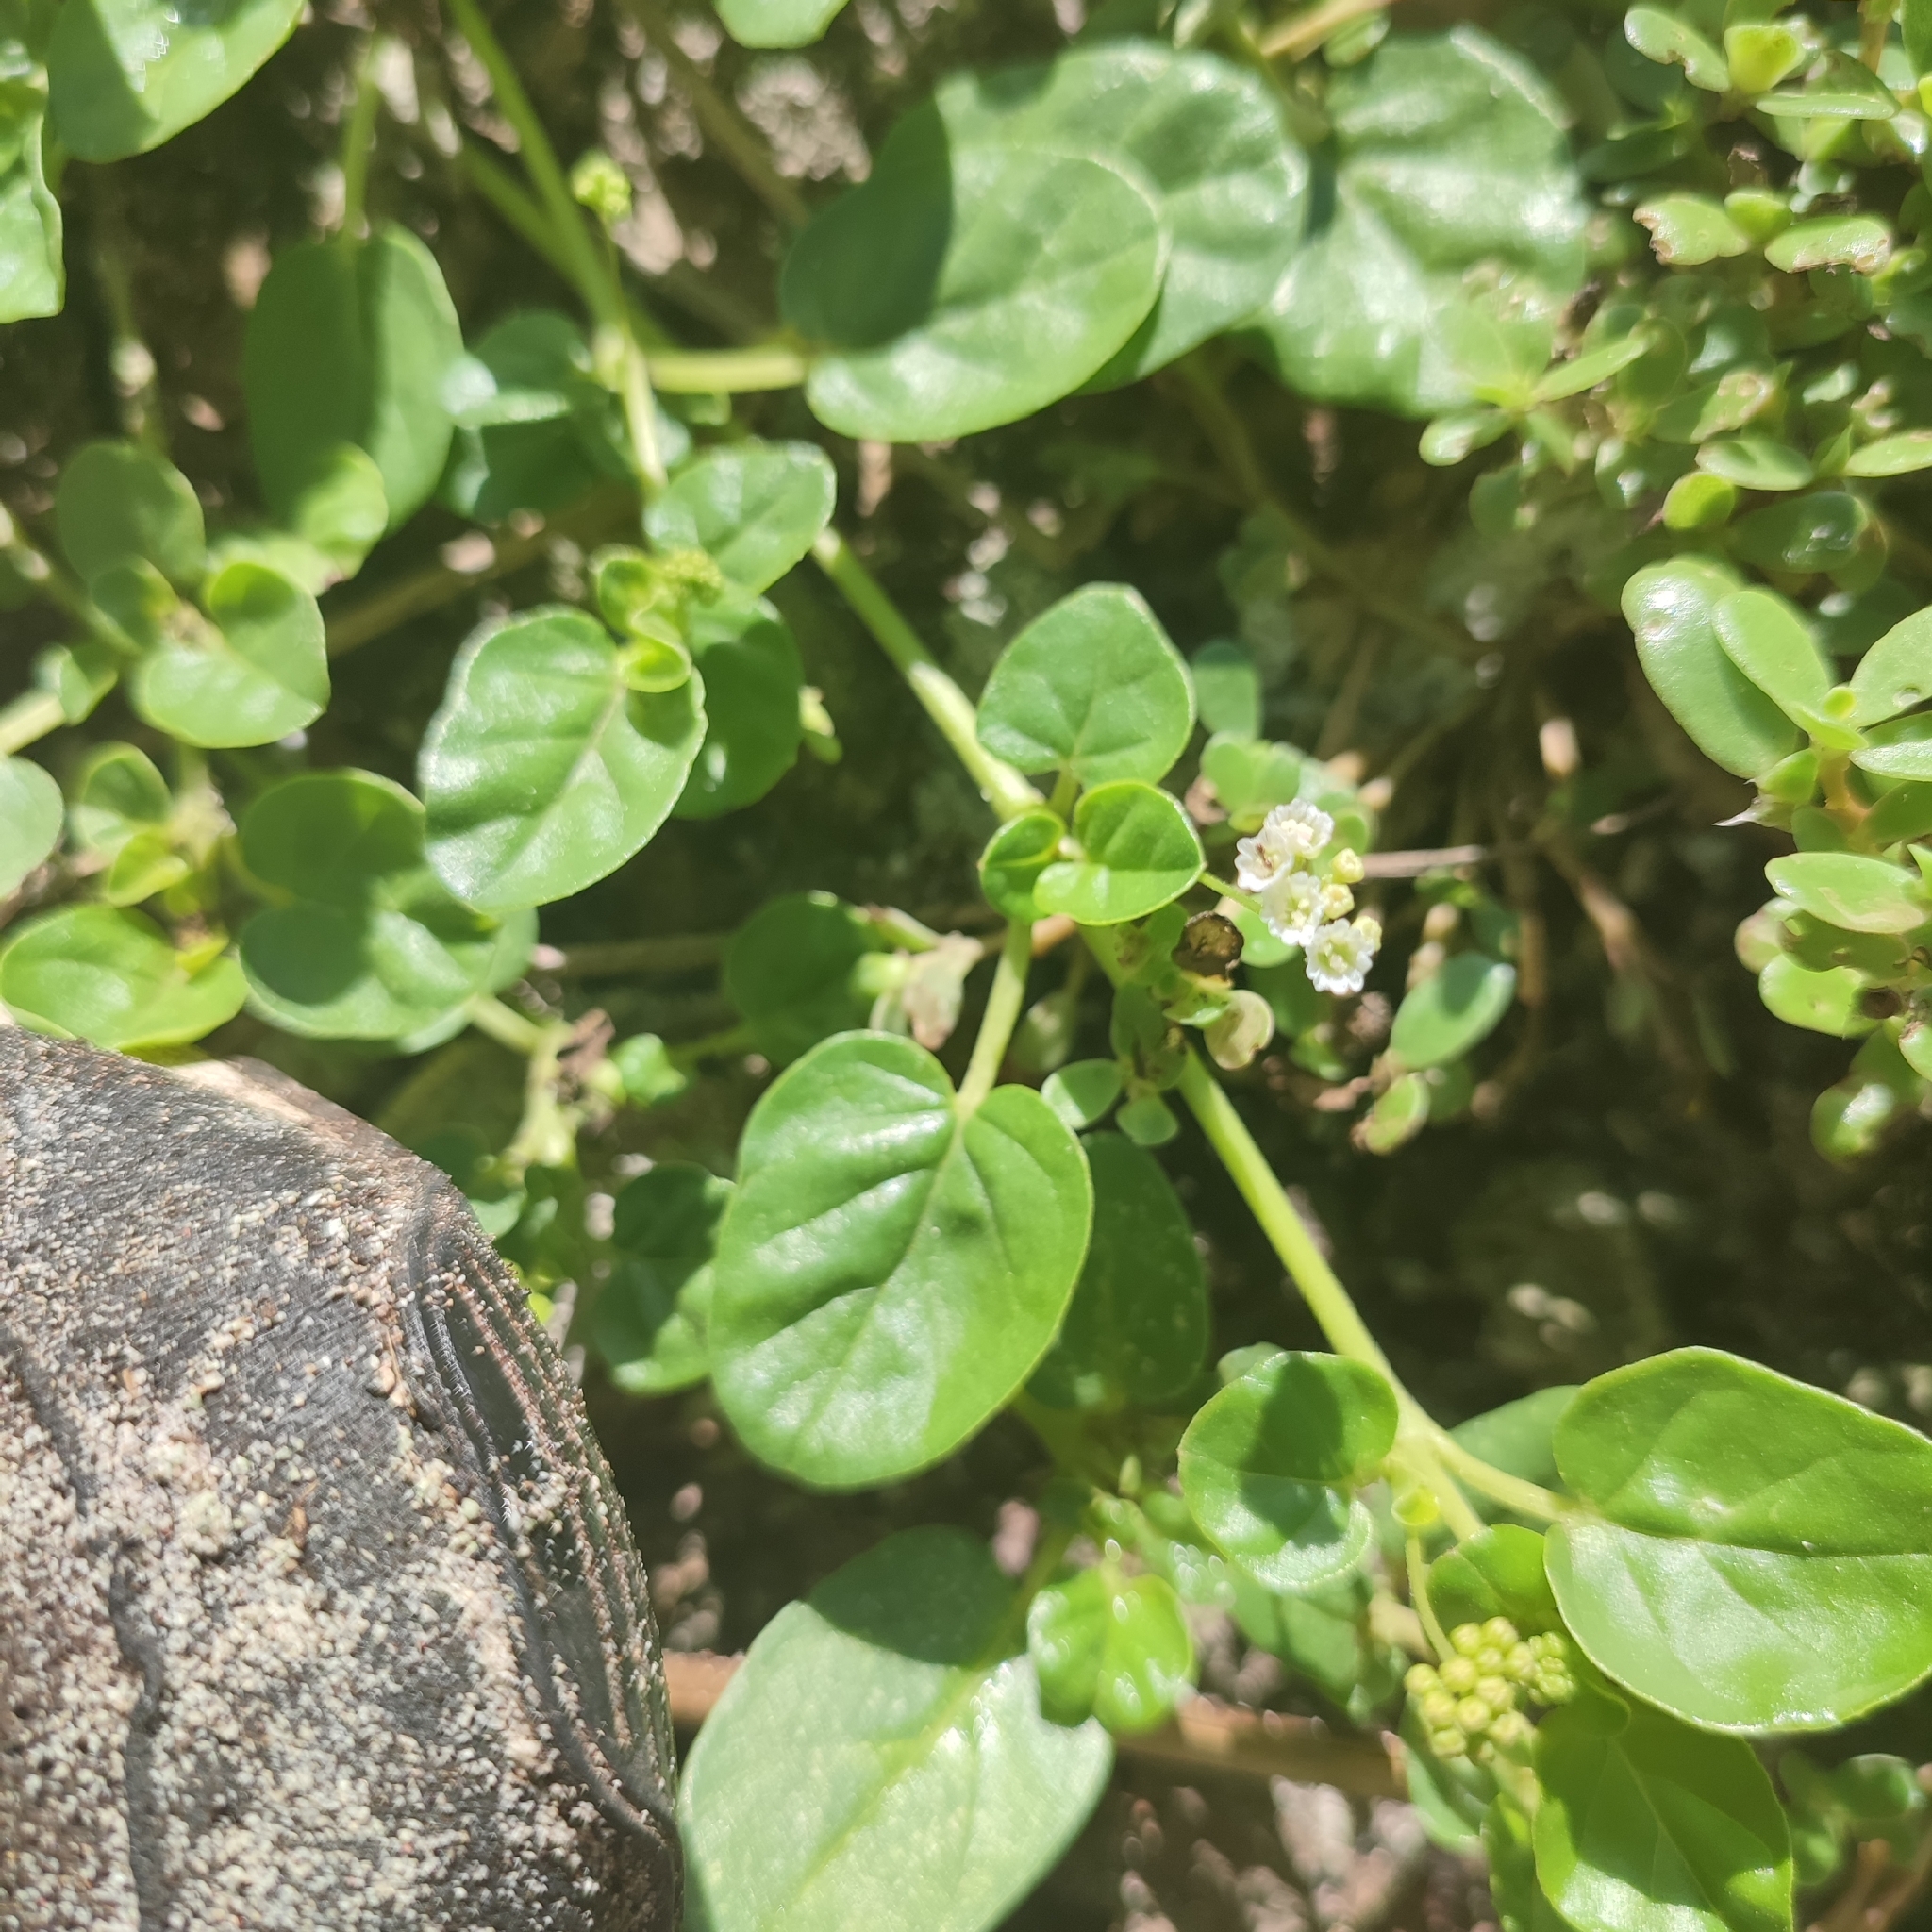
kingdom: Plantae
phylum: Tracheophyta
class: Magnoliopsida
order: Caryophyllales
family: Nyctaginaceae
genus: Boerhavia
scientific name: Boerhavia repens
